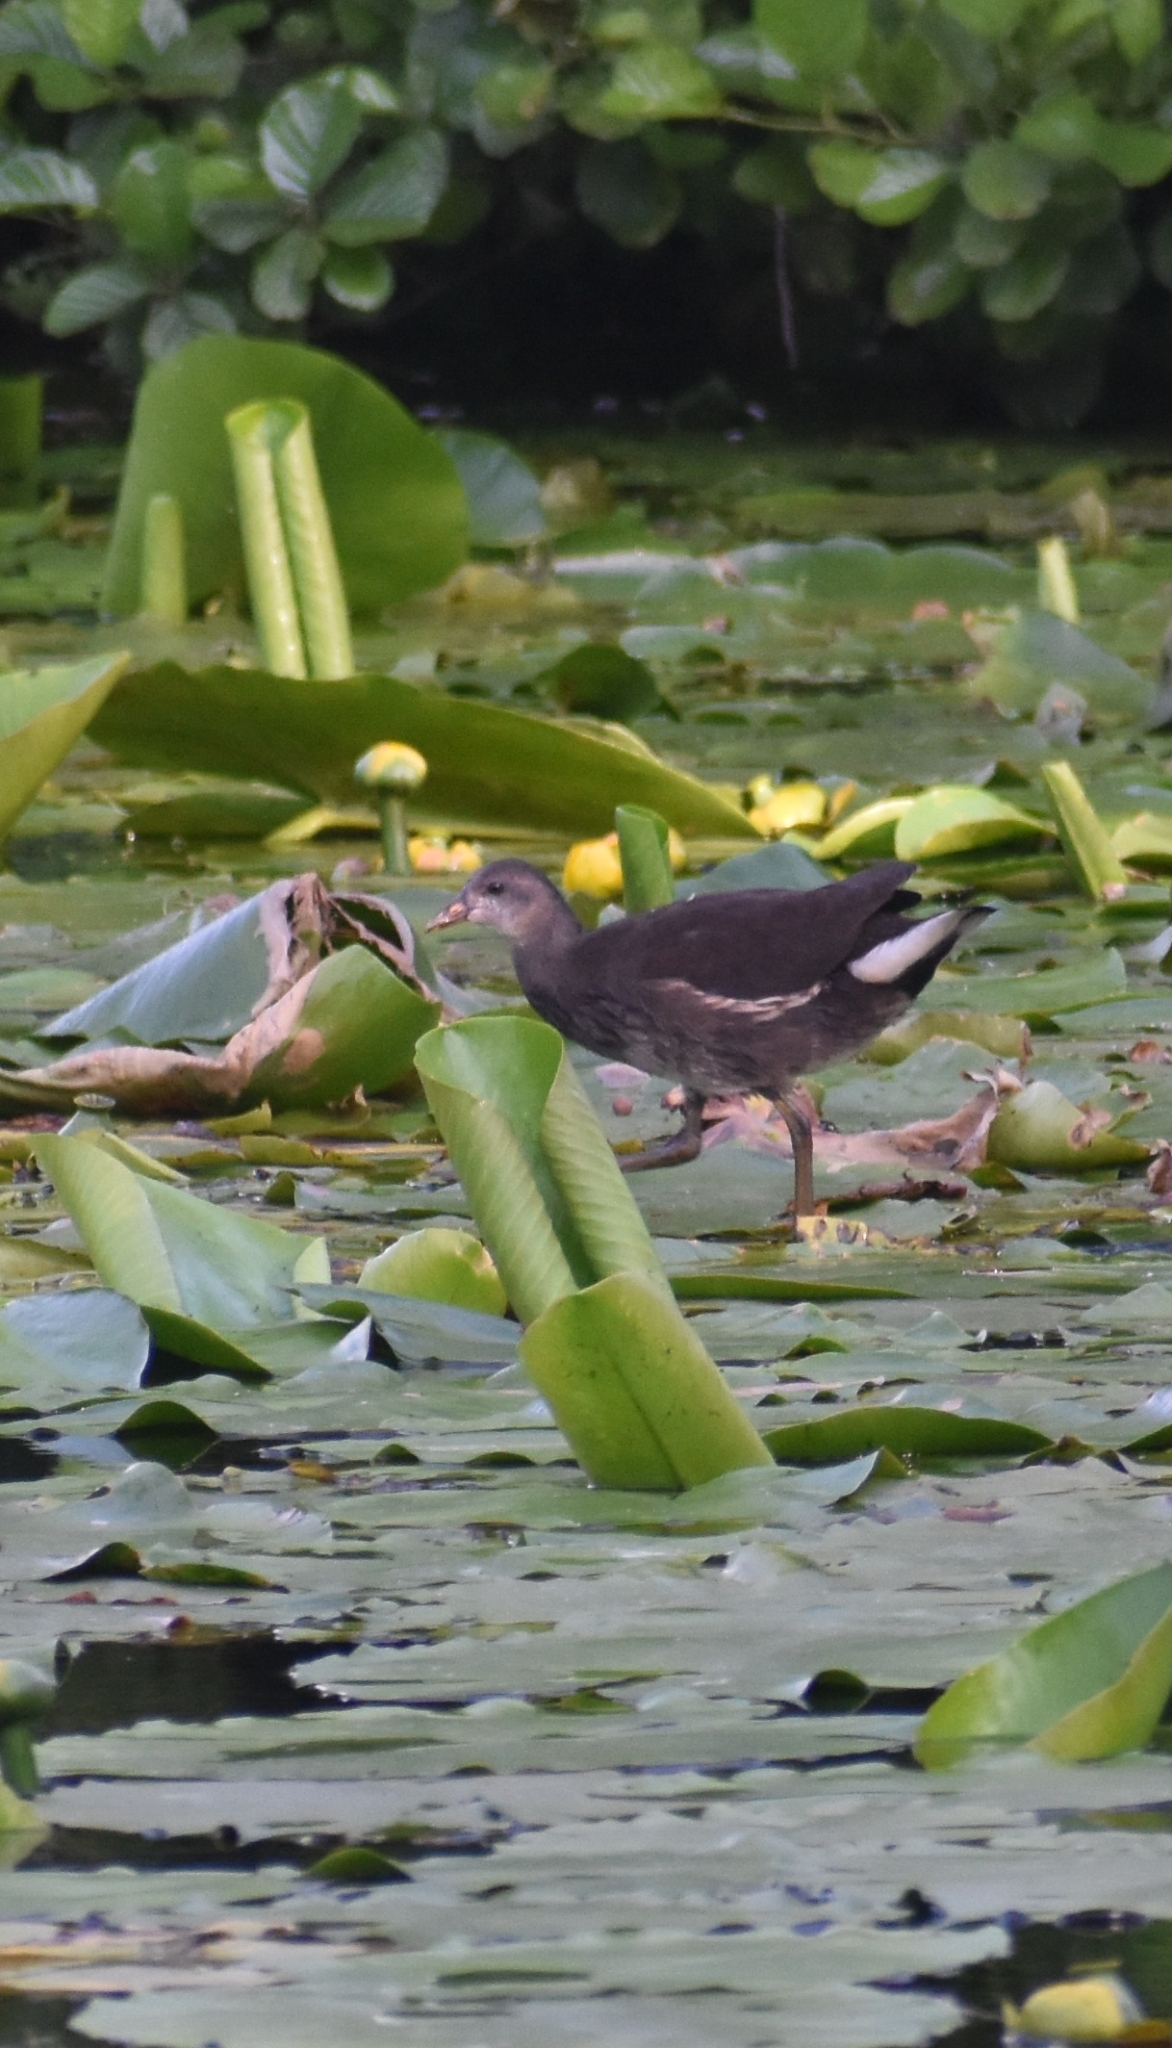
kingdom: Animalia
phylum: Chordata
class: Aves
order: Gruiformes
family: Rallidae
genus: Gallinula
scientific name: Gallinula chloropus
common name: Common moorhen
